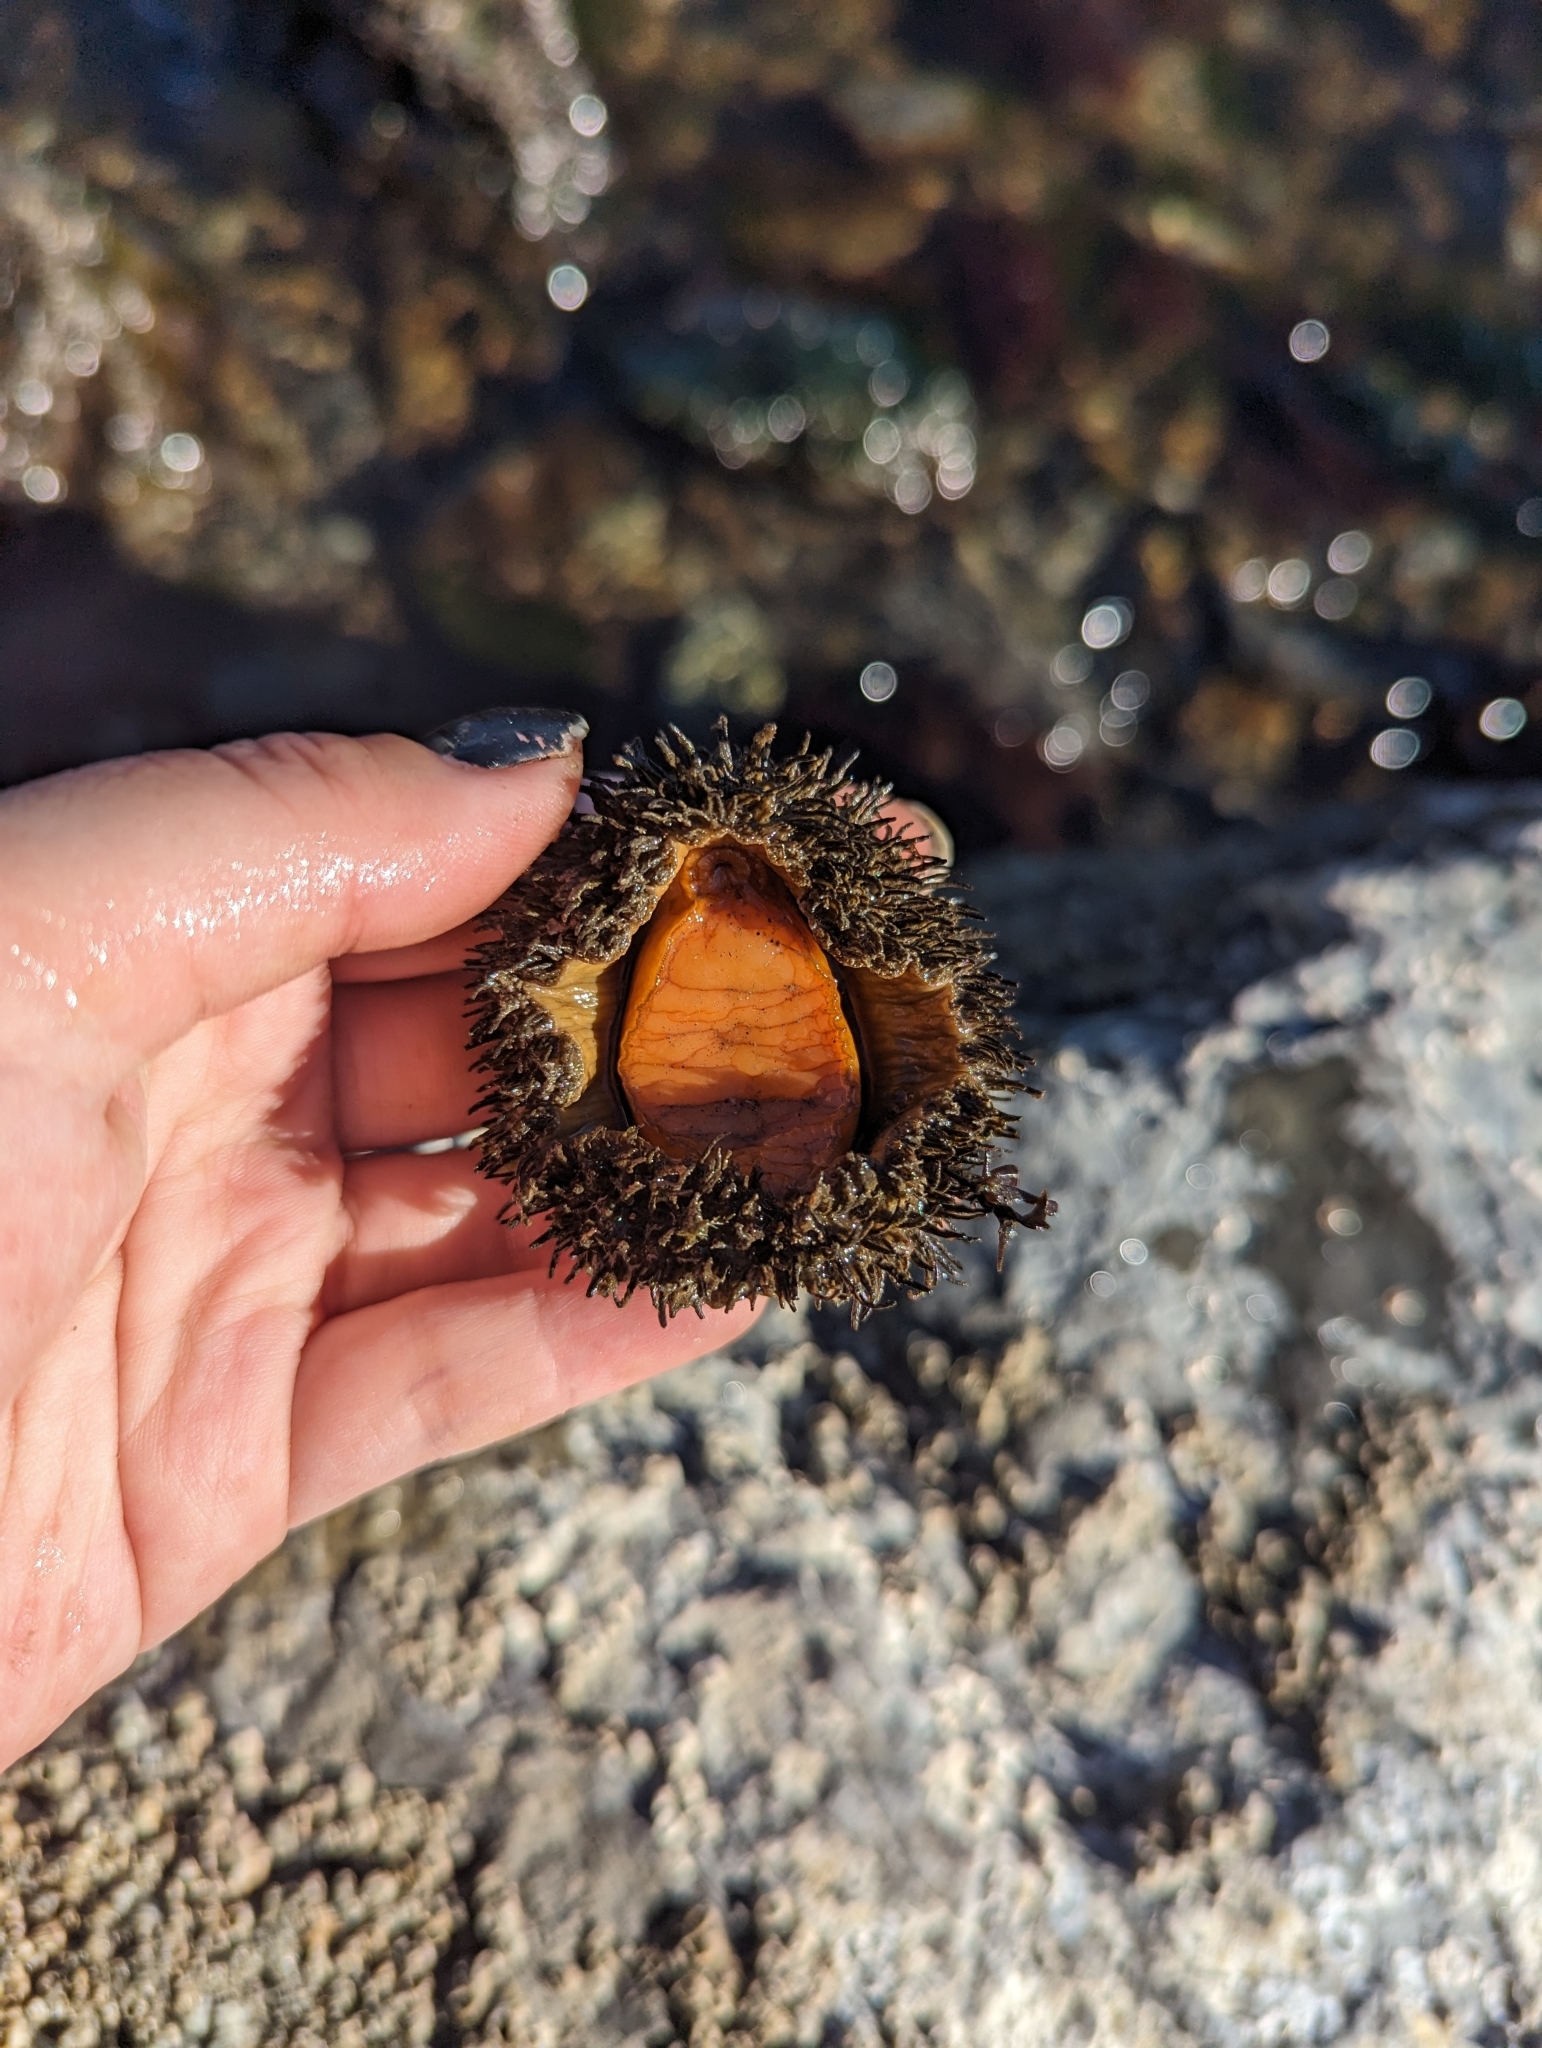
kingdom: Animalia
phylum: Mollusca
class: Polyplacophora
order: Chitonida
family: Mopaliidae
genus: Mopalia
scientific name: Mopalia muscosa
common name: Mossy chiton
